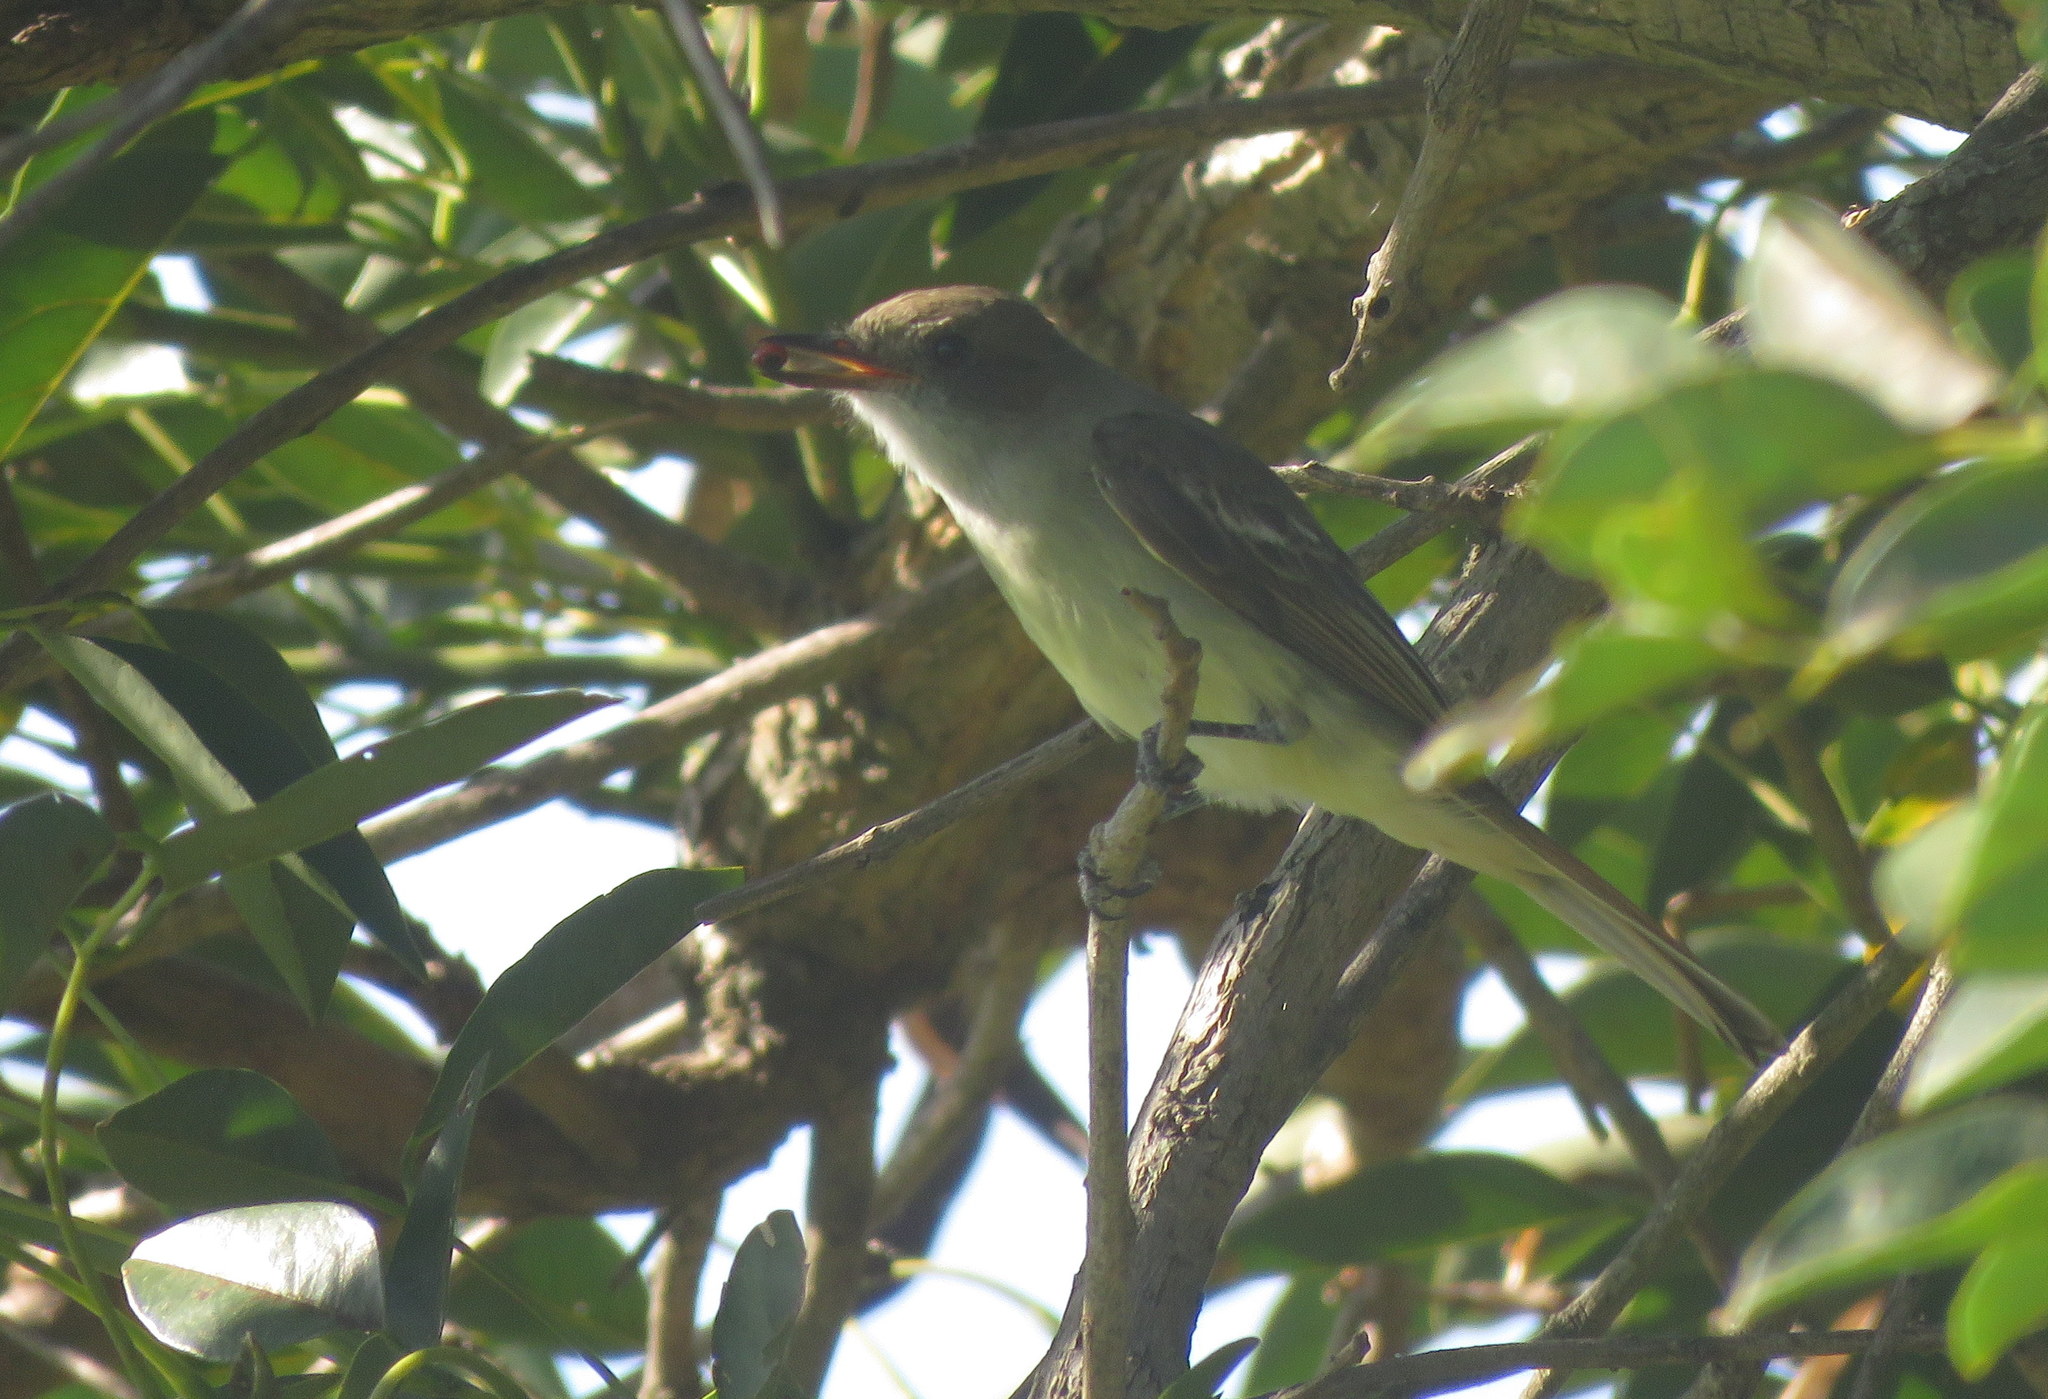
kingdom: Animalia
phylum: Chordata
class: Aves
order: Passeriformes
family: Tyrannidae
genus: Myiarchus
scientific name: Myiarchus swainsoni
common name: Swainson's flycatcher
